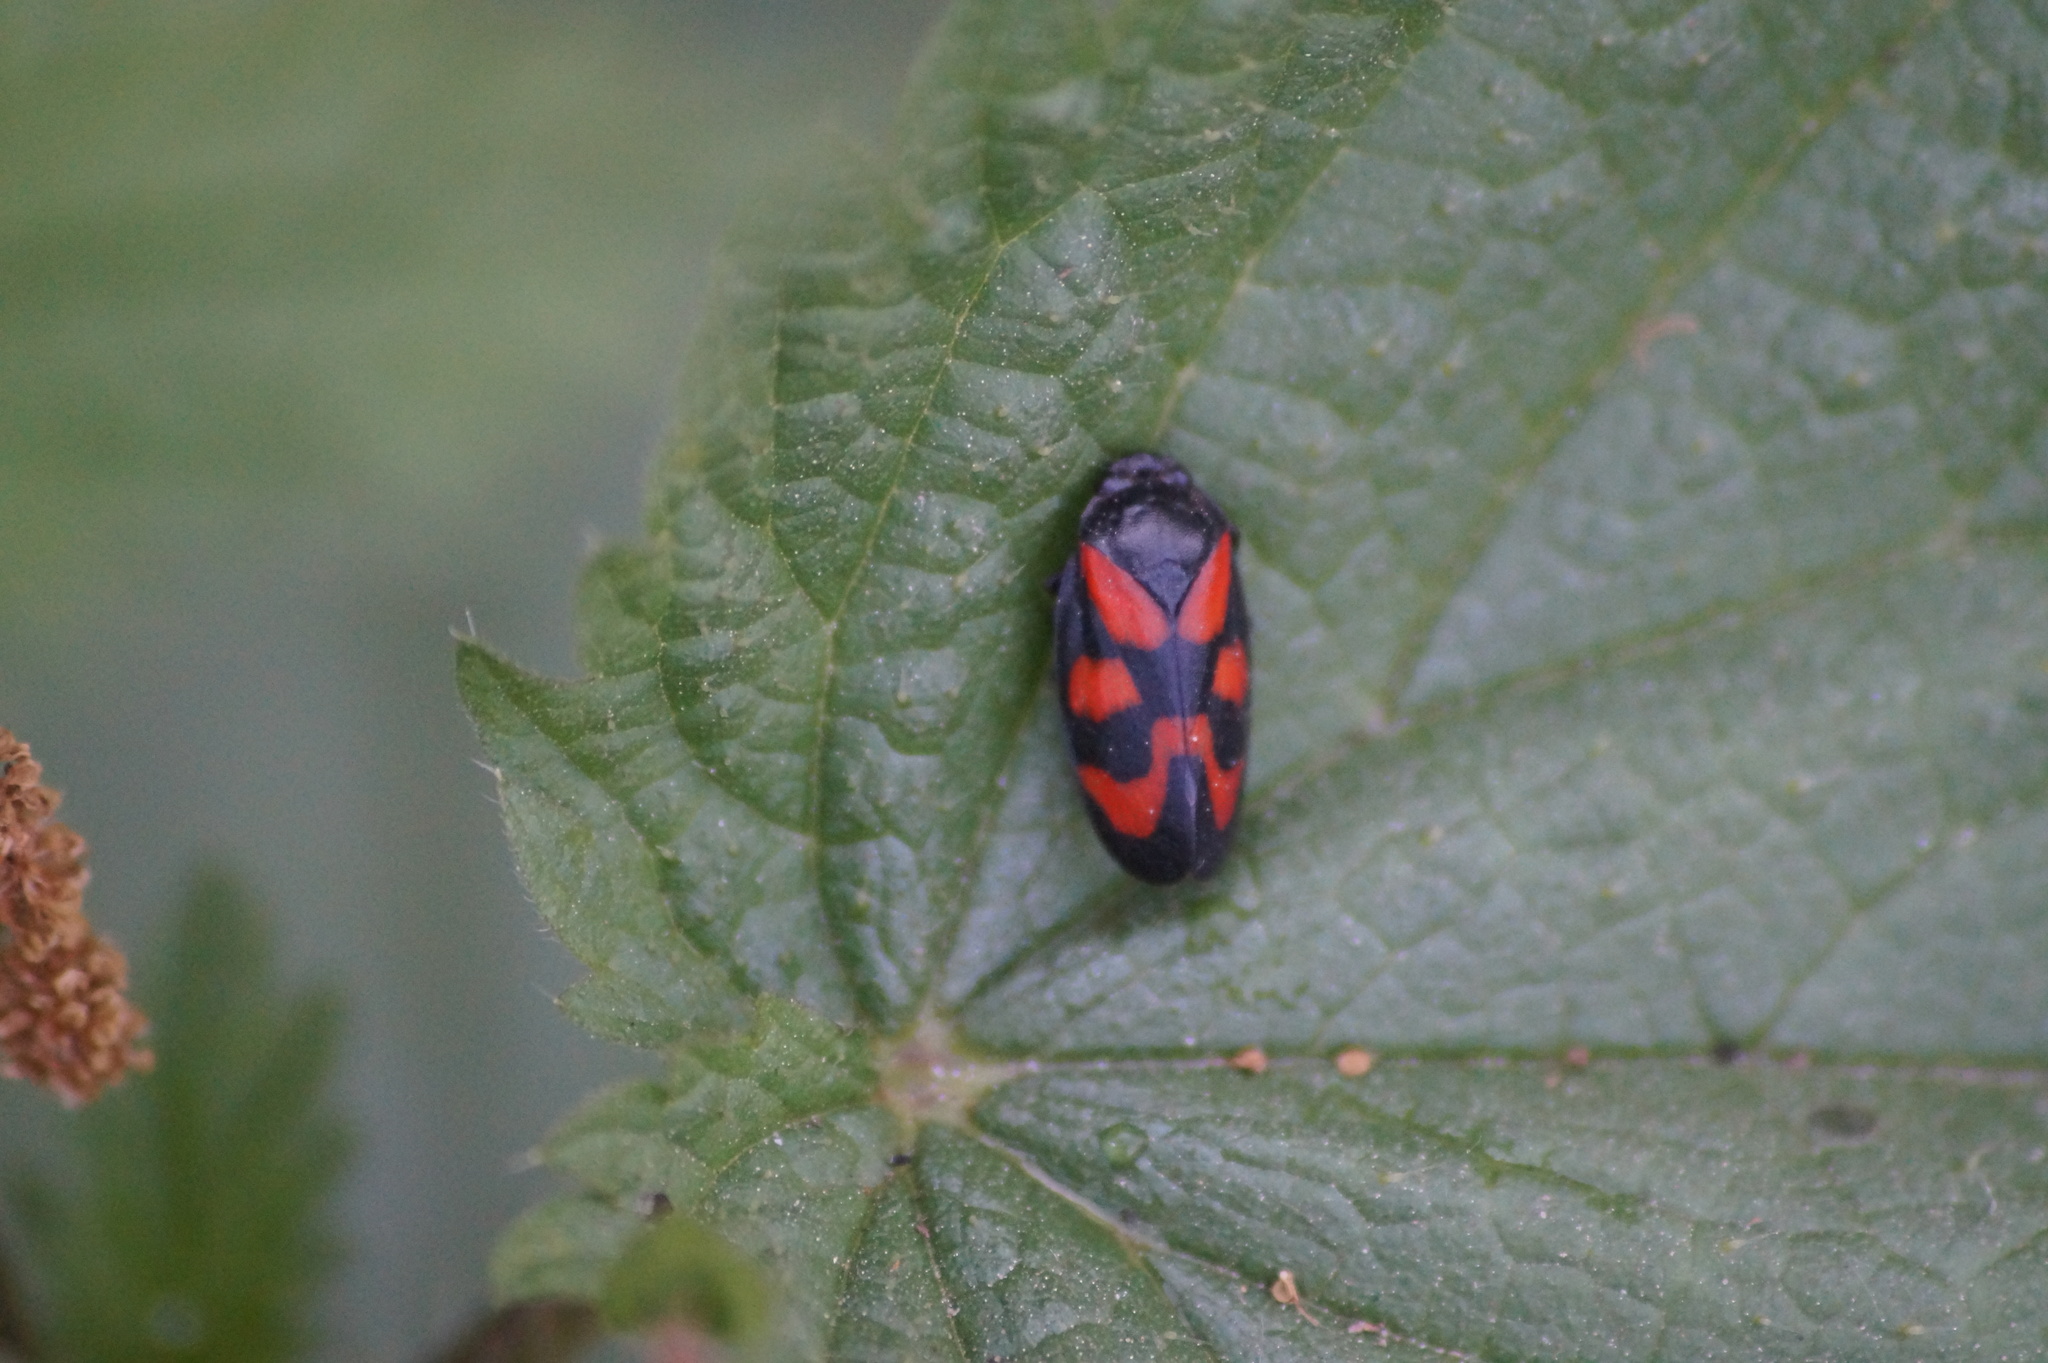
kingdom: Animalia
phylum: Arthropoda
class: Insecta
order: Hemiptera
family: Cercopidae
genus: Cercopis
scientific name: Cercopis vulnerata
